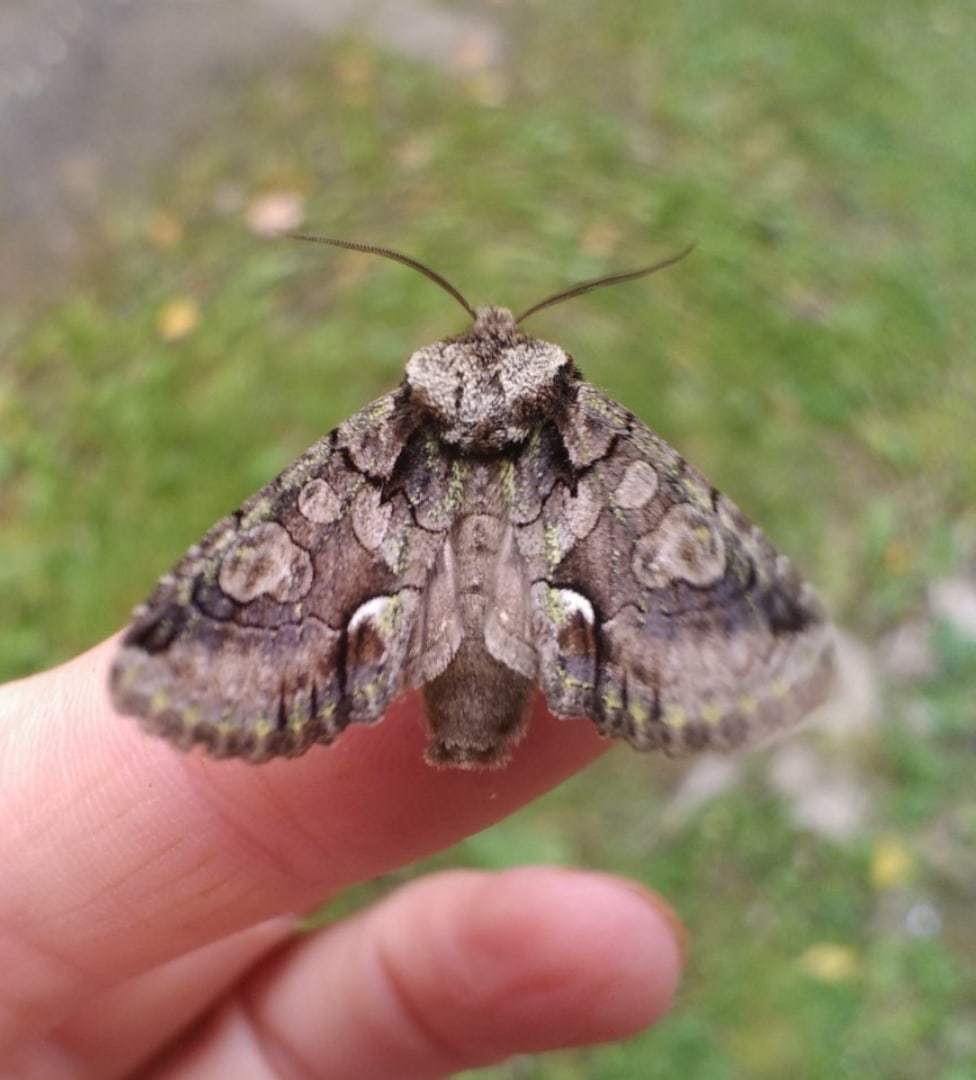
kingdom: Animalia
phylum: Arthropoda
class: Insecta
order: Lepidoptera
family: Noctuidae
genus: Allophyes
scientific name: Allophyes oxyacanthae
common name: Green-brindled crescent
